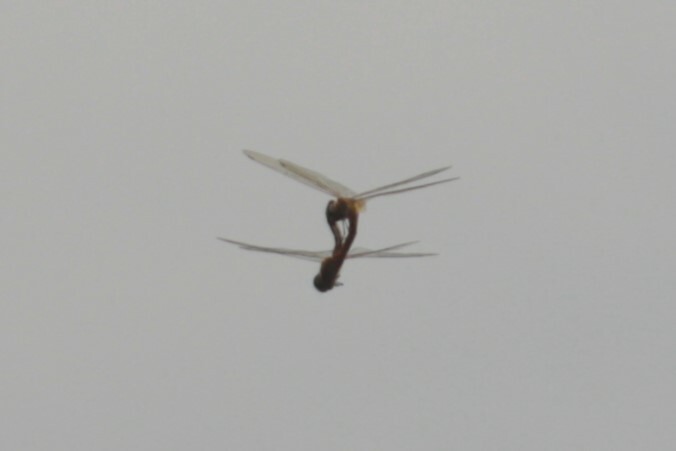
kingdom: Animalia
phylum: Arthropoda
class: Insecta
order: Odonata
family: Libellulidae
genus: Pantala
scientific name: Pantala flavescens
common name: Wandering glider
